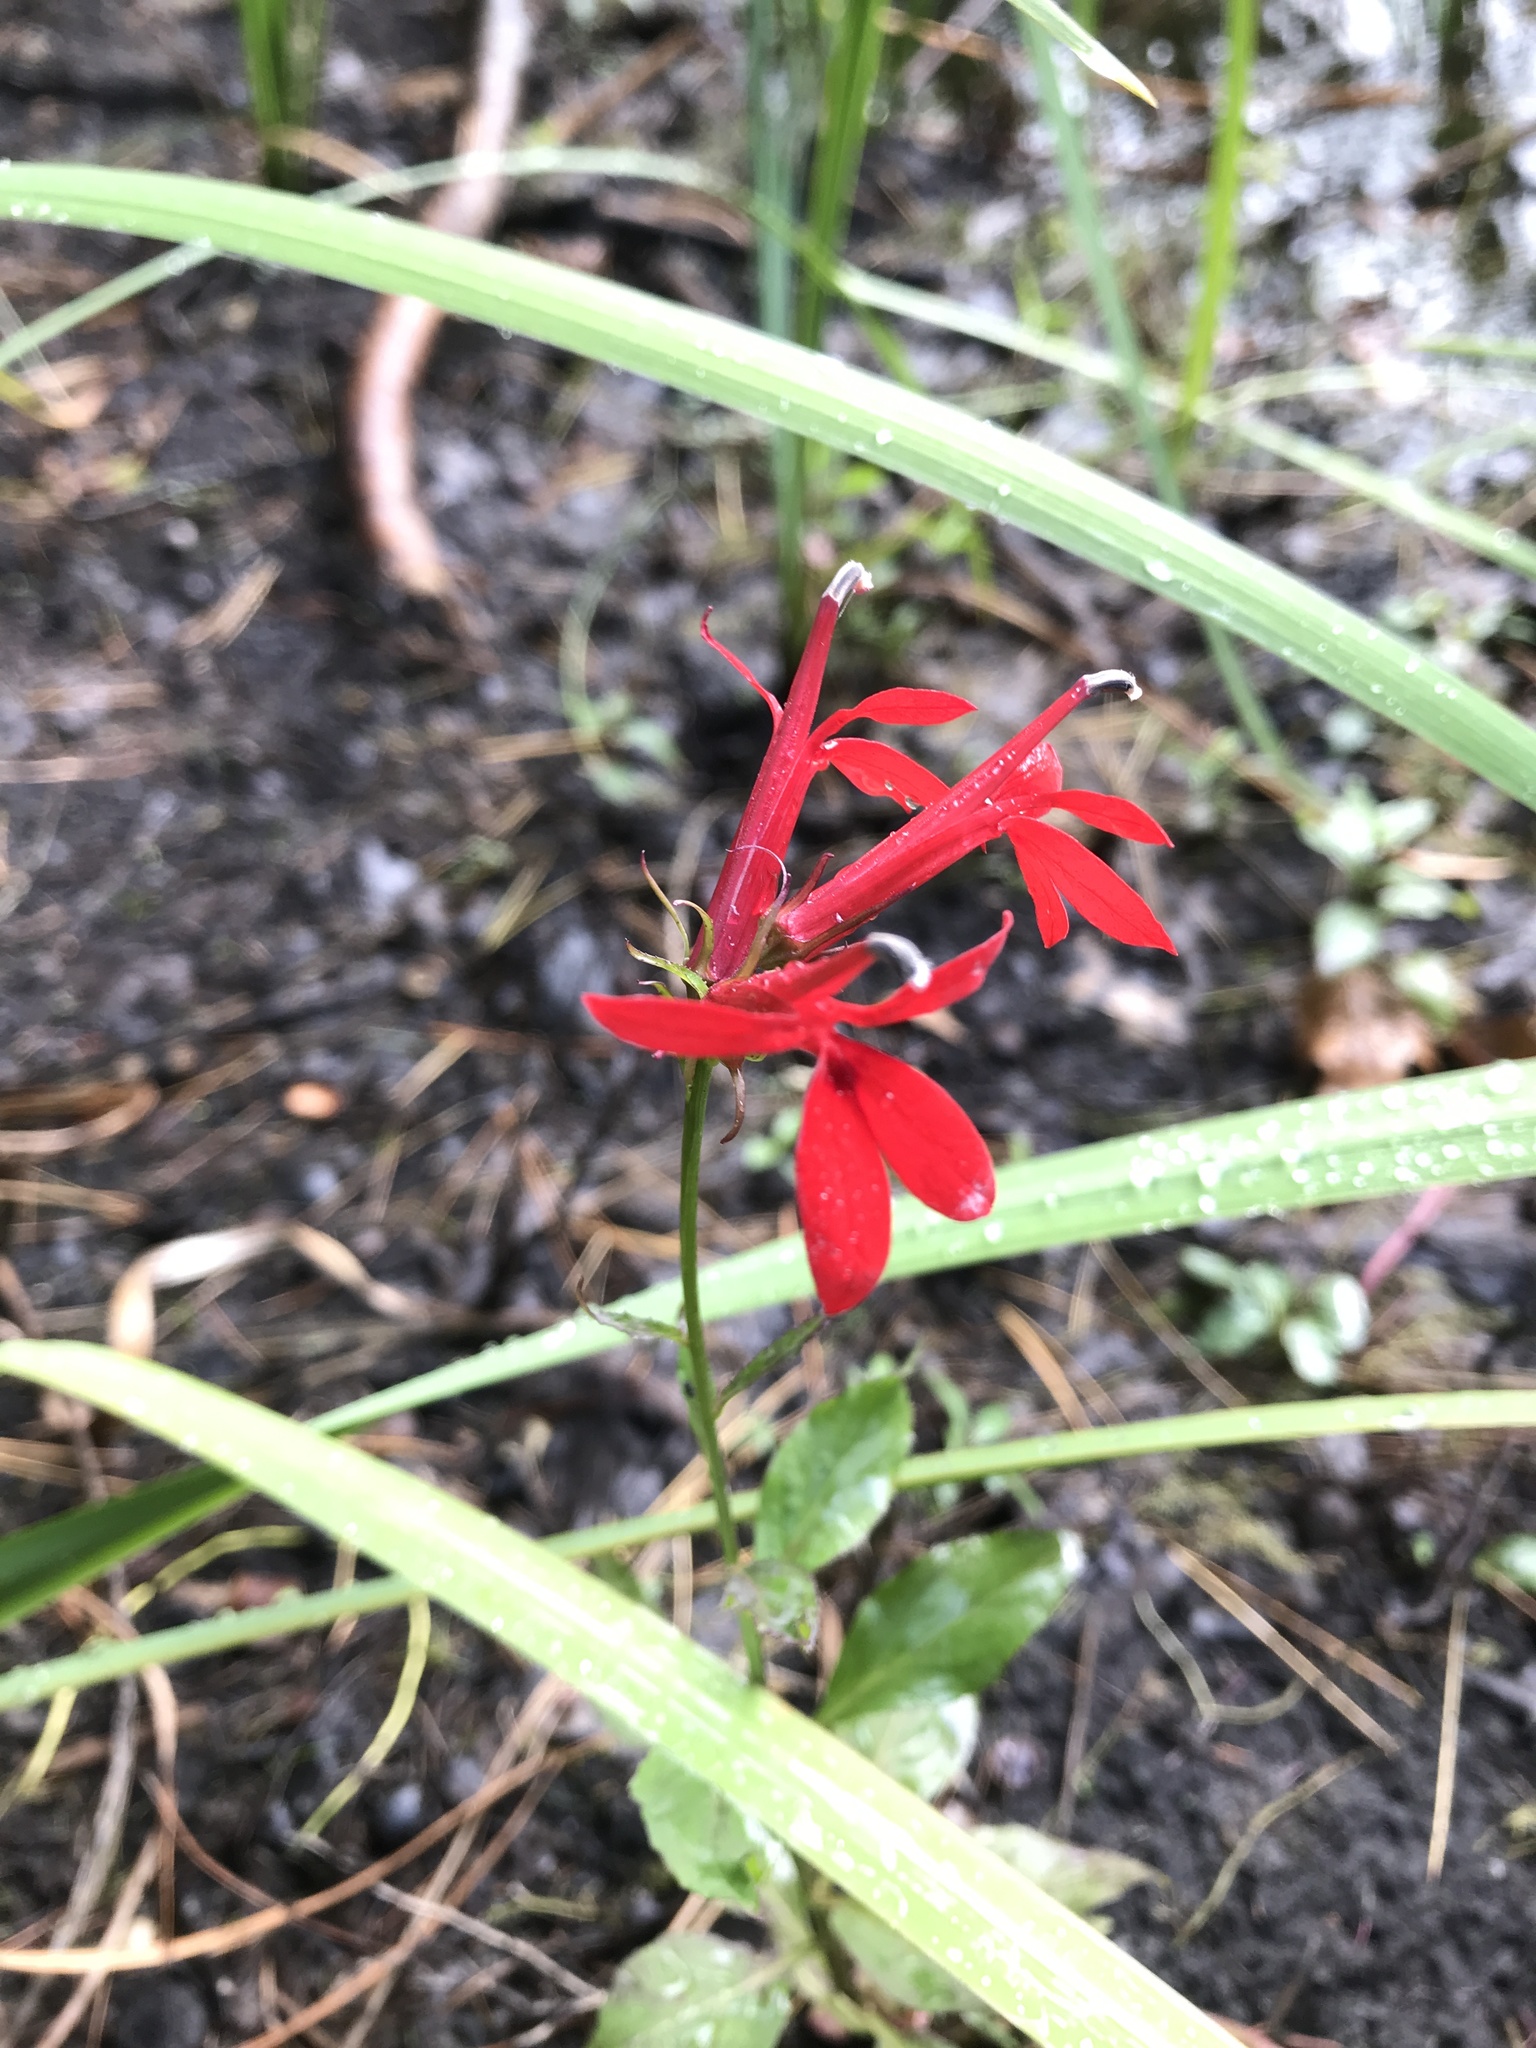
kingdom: Plantae
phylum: Tracheophyta
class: Magnoliopsida
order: Asterales
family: Campanulaceae
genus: Lobelia
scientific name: Lobelia cardinalis
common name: Cardinal flower
